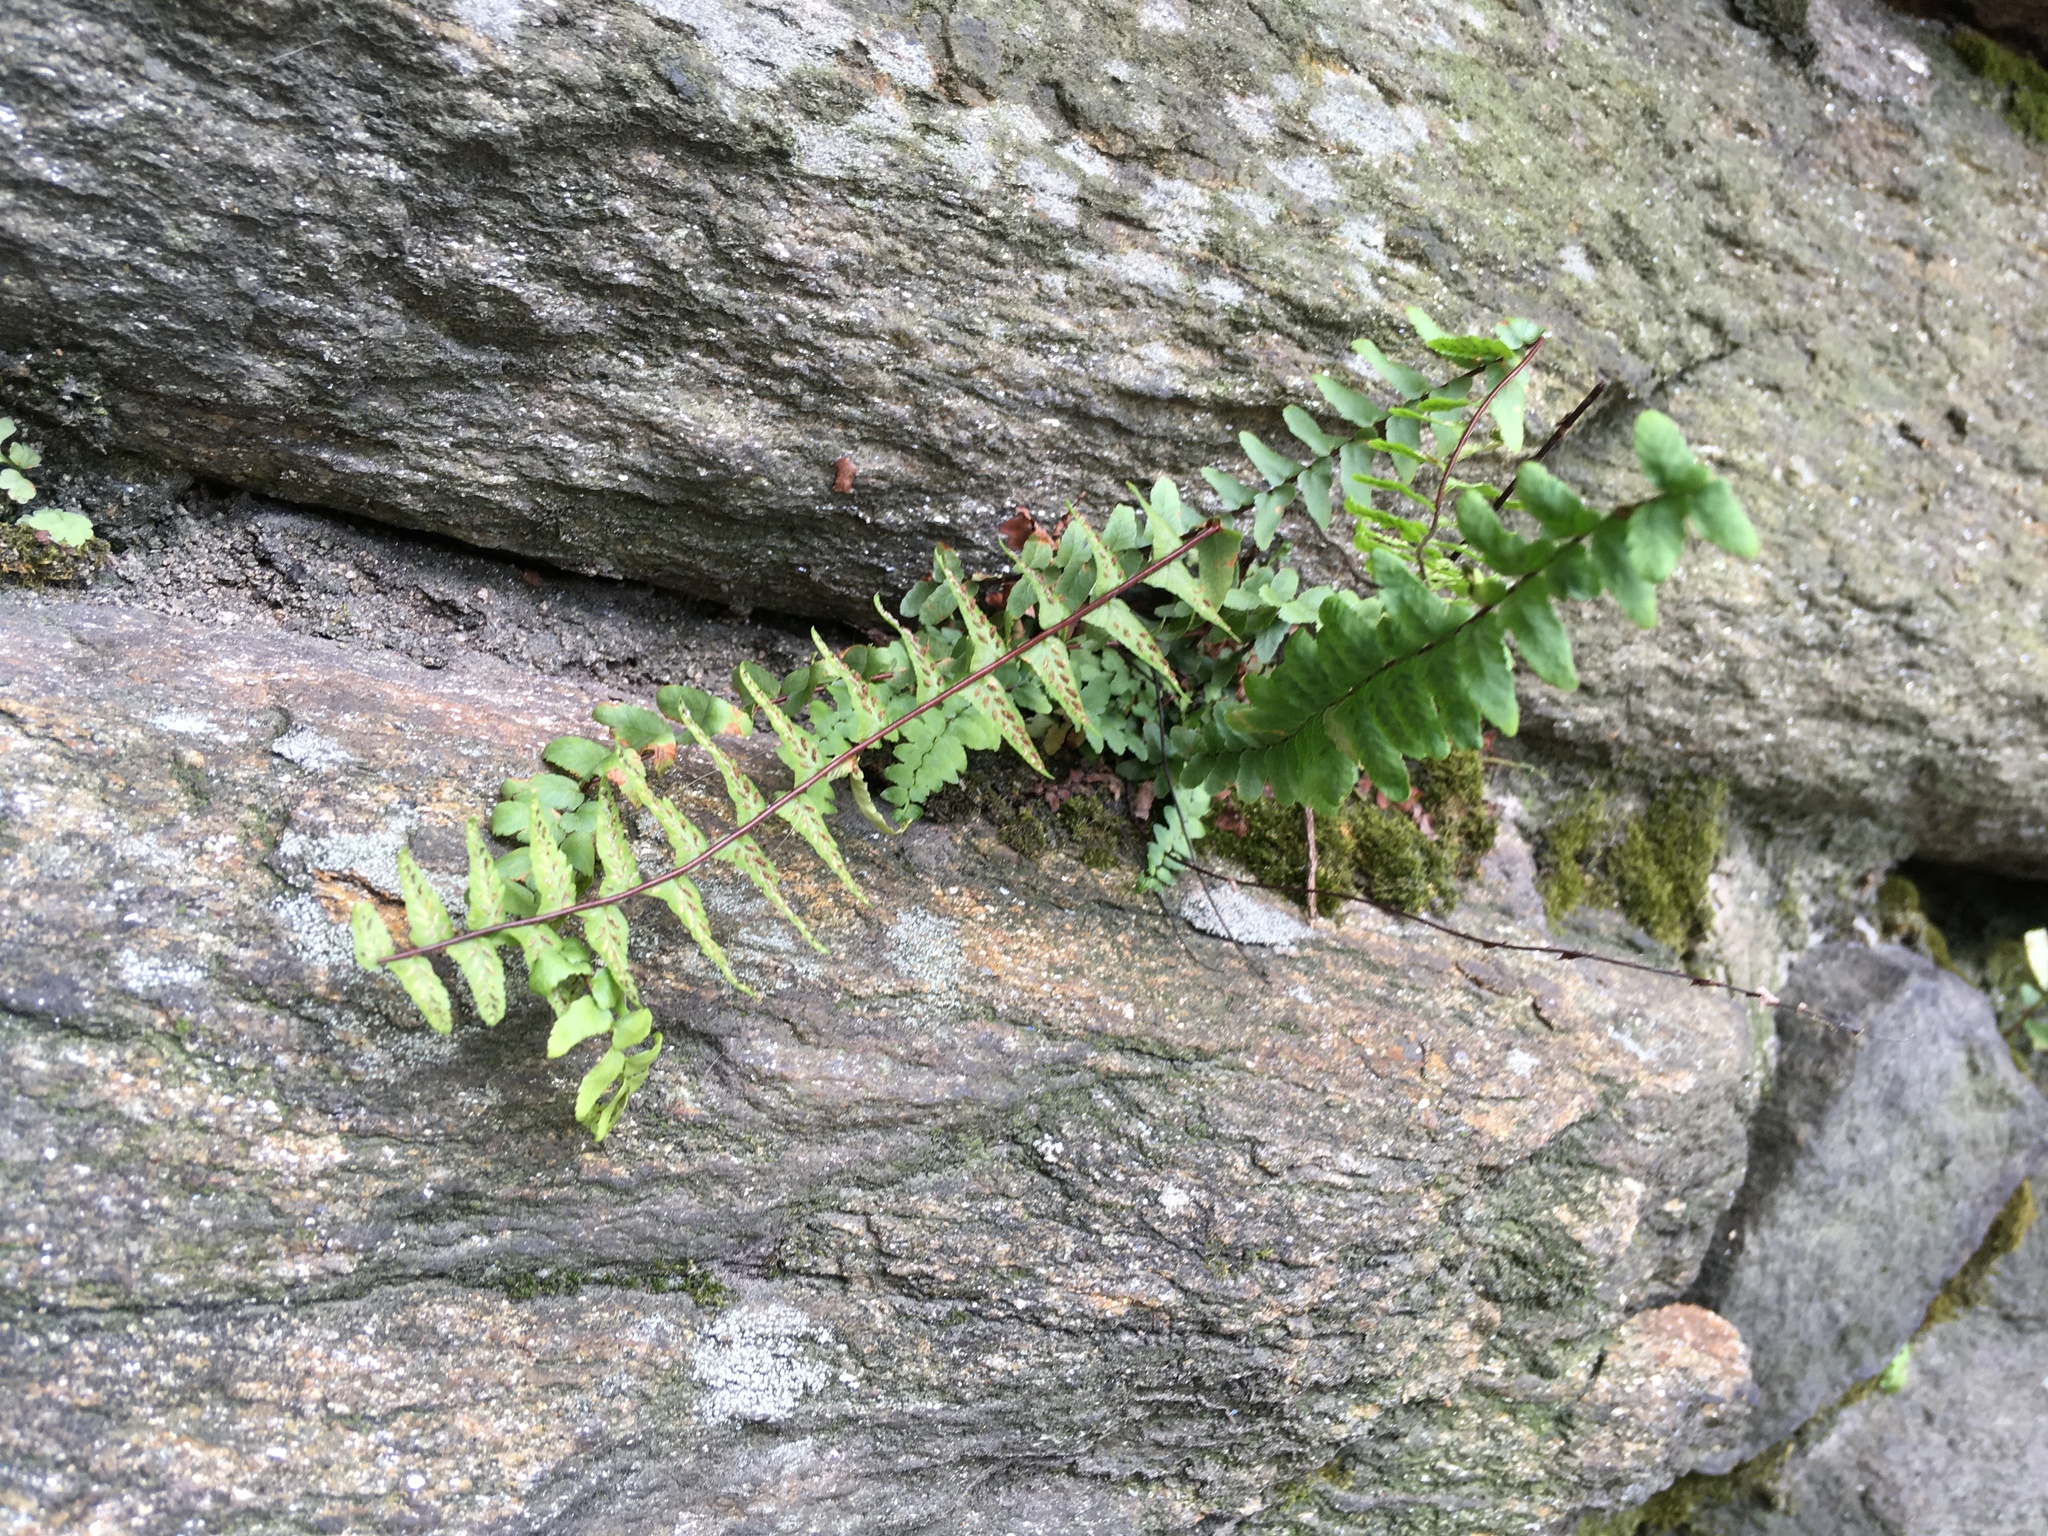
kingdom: Plantae
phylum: Tracheophyta
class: Polypodiopsida
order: Polypodiales
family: Aspleniaceae
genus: Asplenium
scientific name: Asplenium platyneuron
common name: Ebony spleenwort
